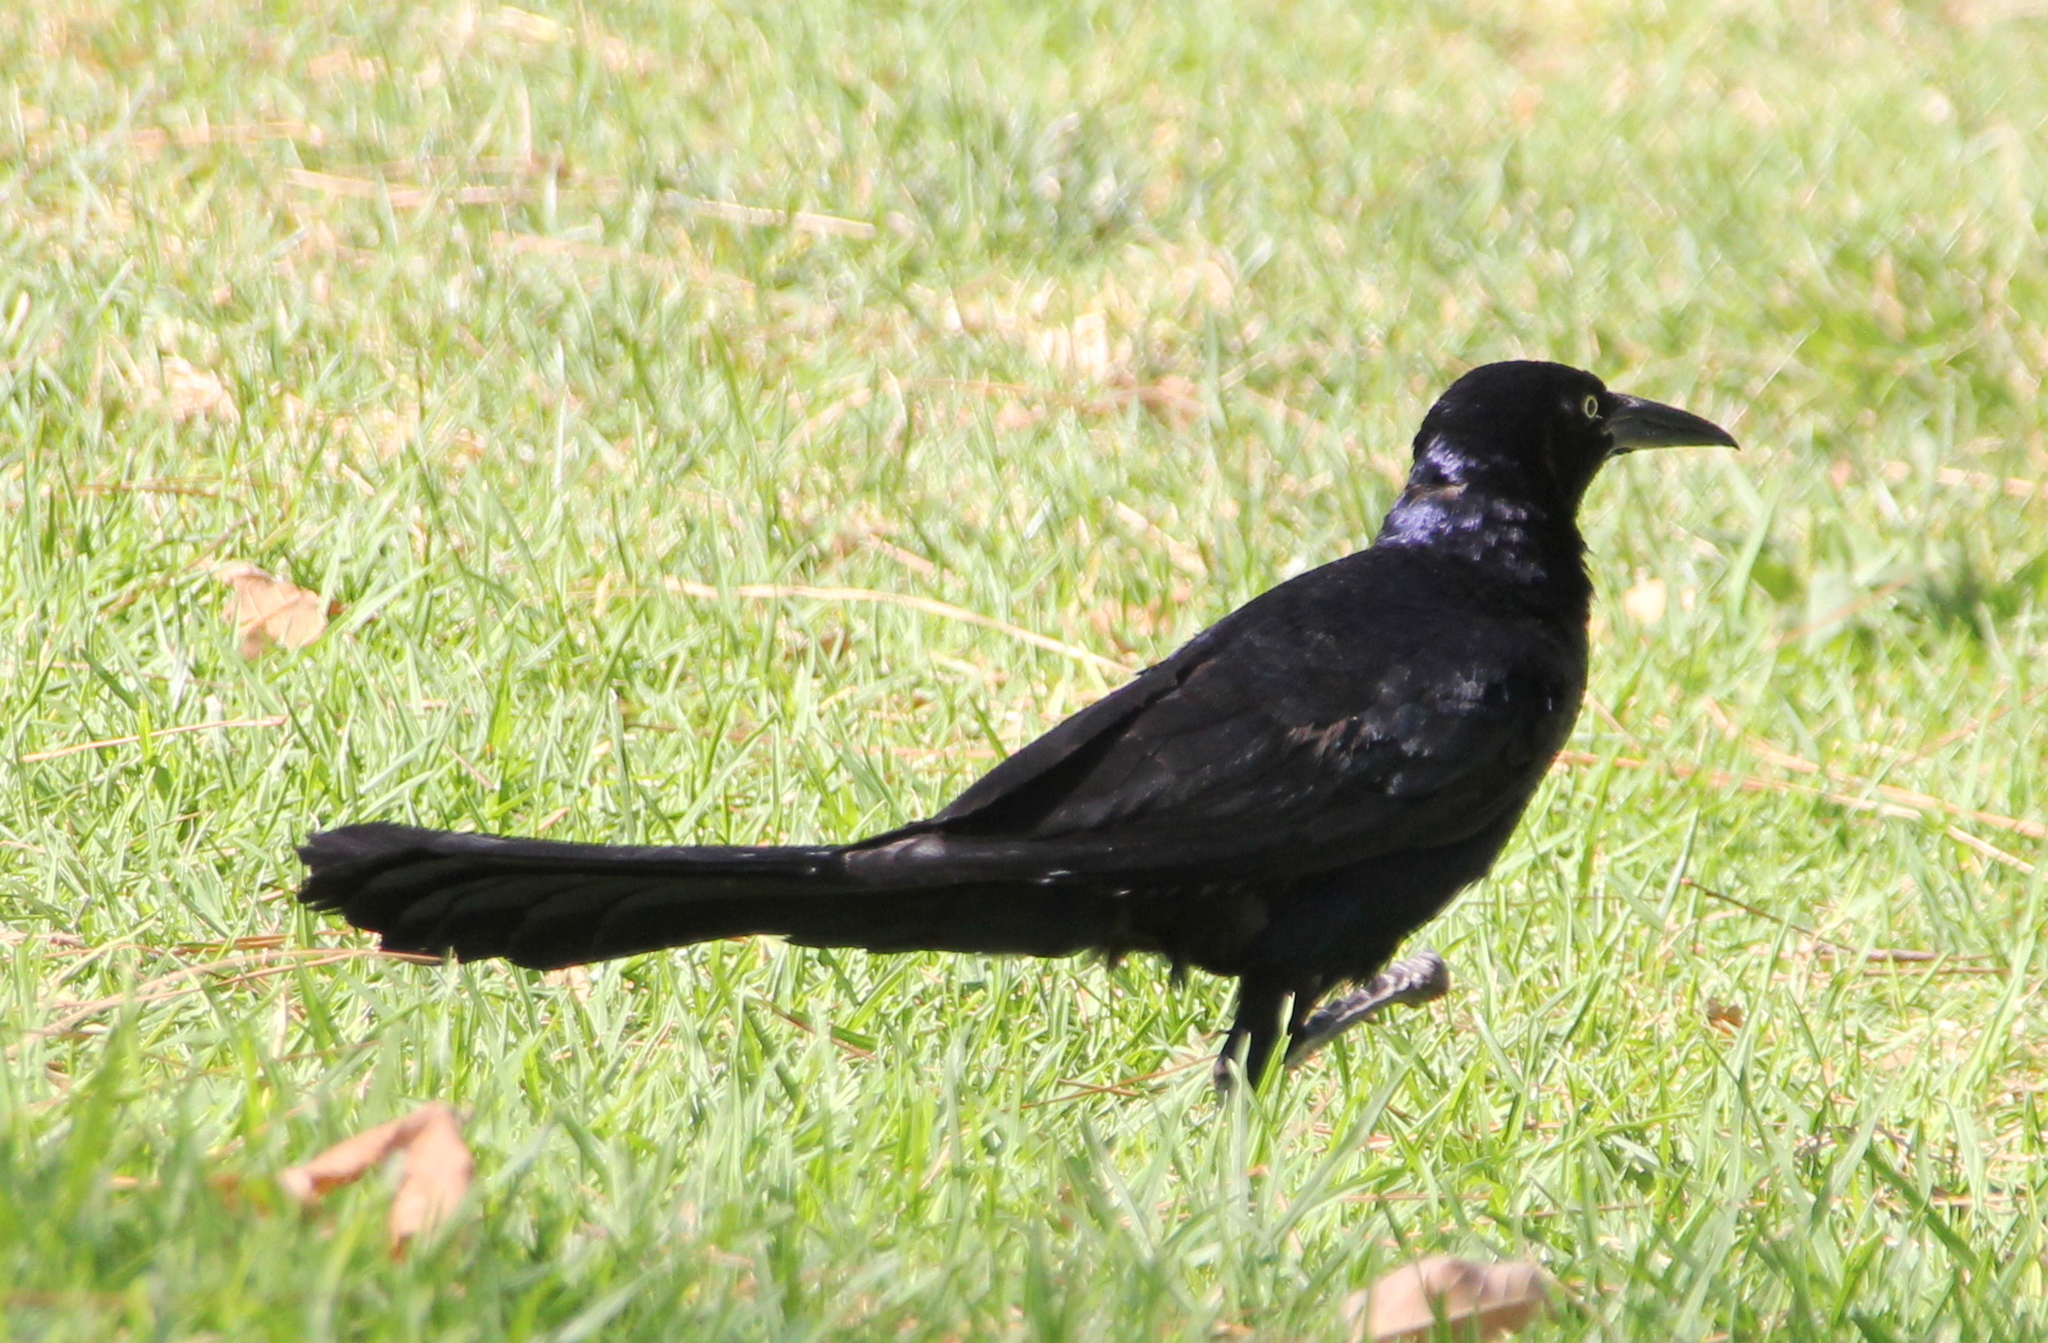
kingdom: Animalia
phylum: Chordata
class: Aves
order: Passeriformes
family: Icteridae
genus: Quiscalus
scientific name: Quiscalus mexicanus
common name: Great-tailed grackle
